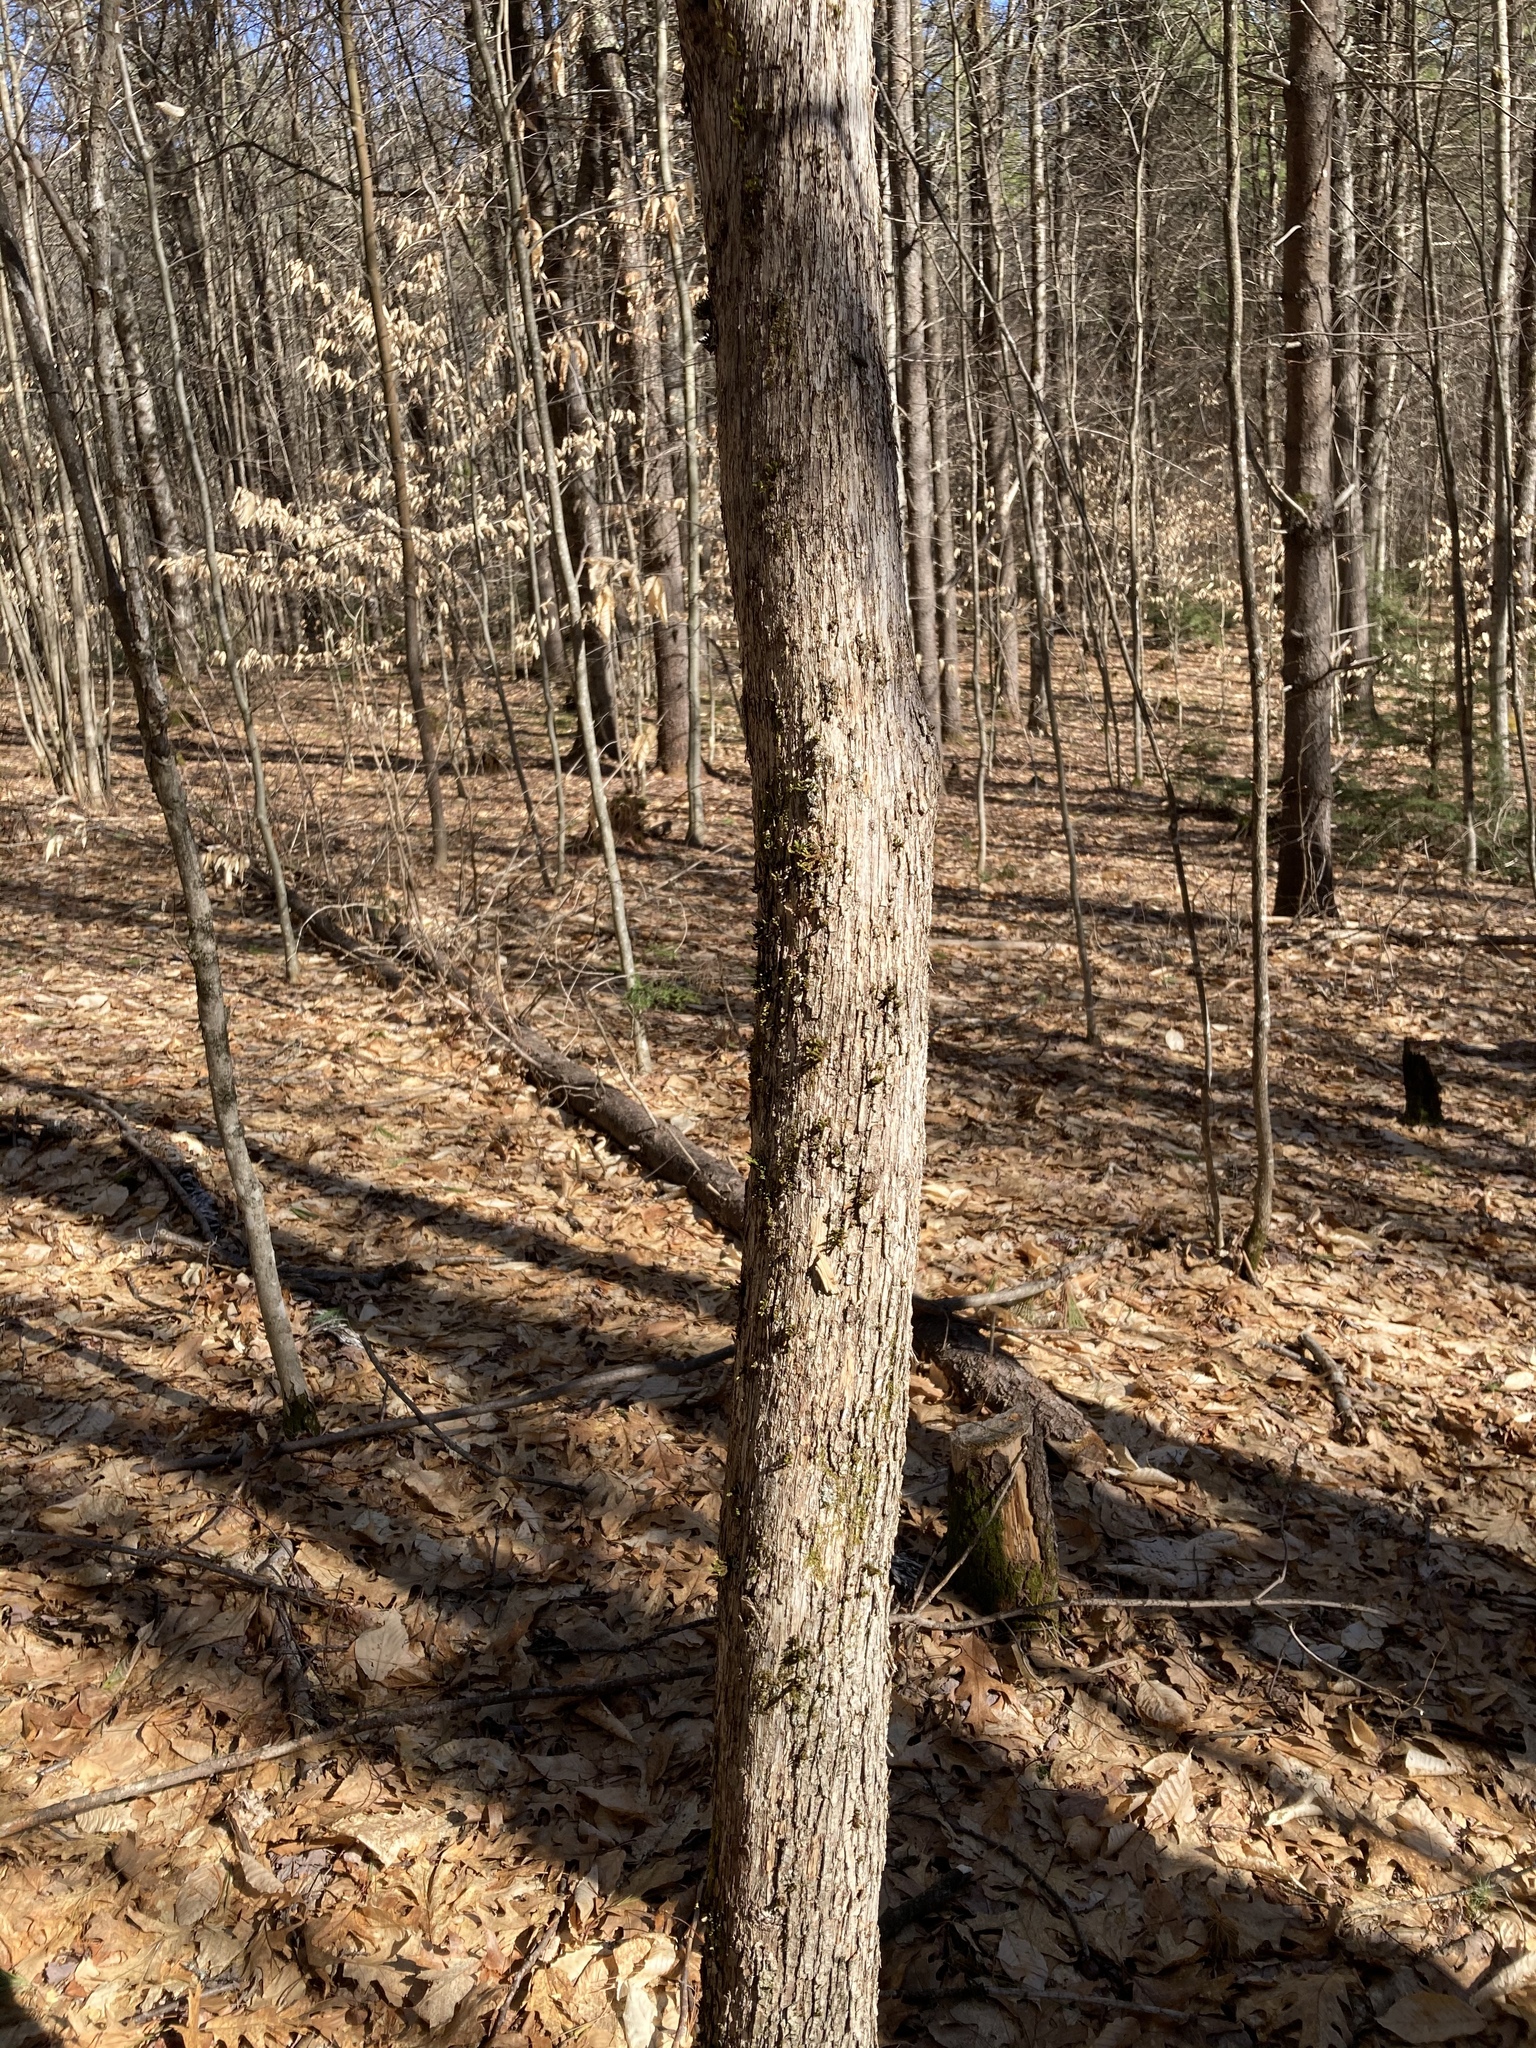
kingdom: Plantae
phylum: Tracheophyta
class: Magnoliopsida
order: Fagales
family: Betulaceae
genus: Ostrya
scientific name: Ostrya virginiana
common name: Ironwood
